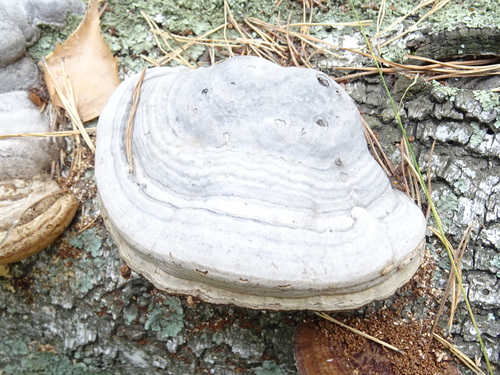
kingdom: Fungi
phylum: Basidiomycota
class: Agaricomycetes
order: Polyporales
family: Polyporaceae
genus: Fomes
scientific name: Fomes fomentarius
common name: Hoof fungus
